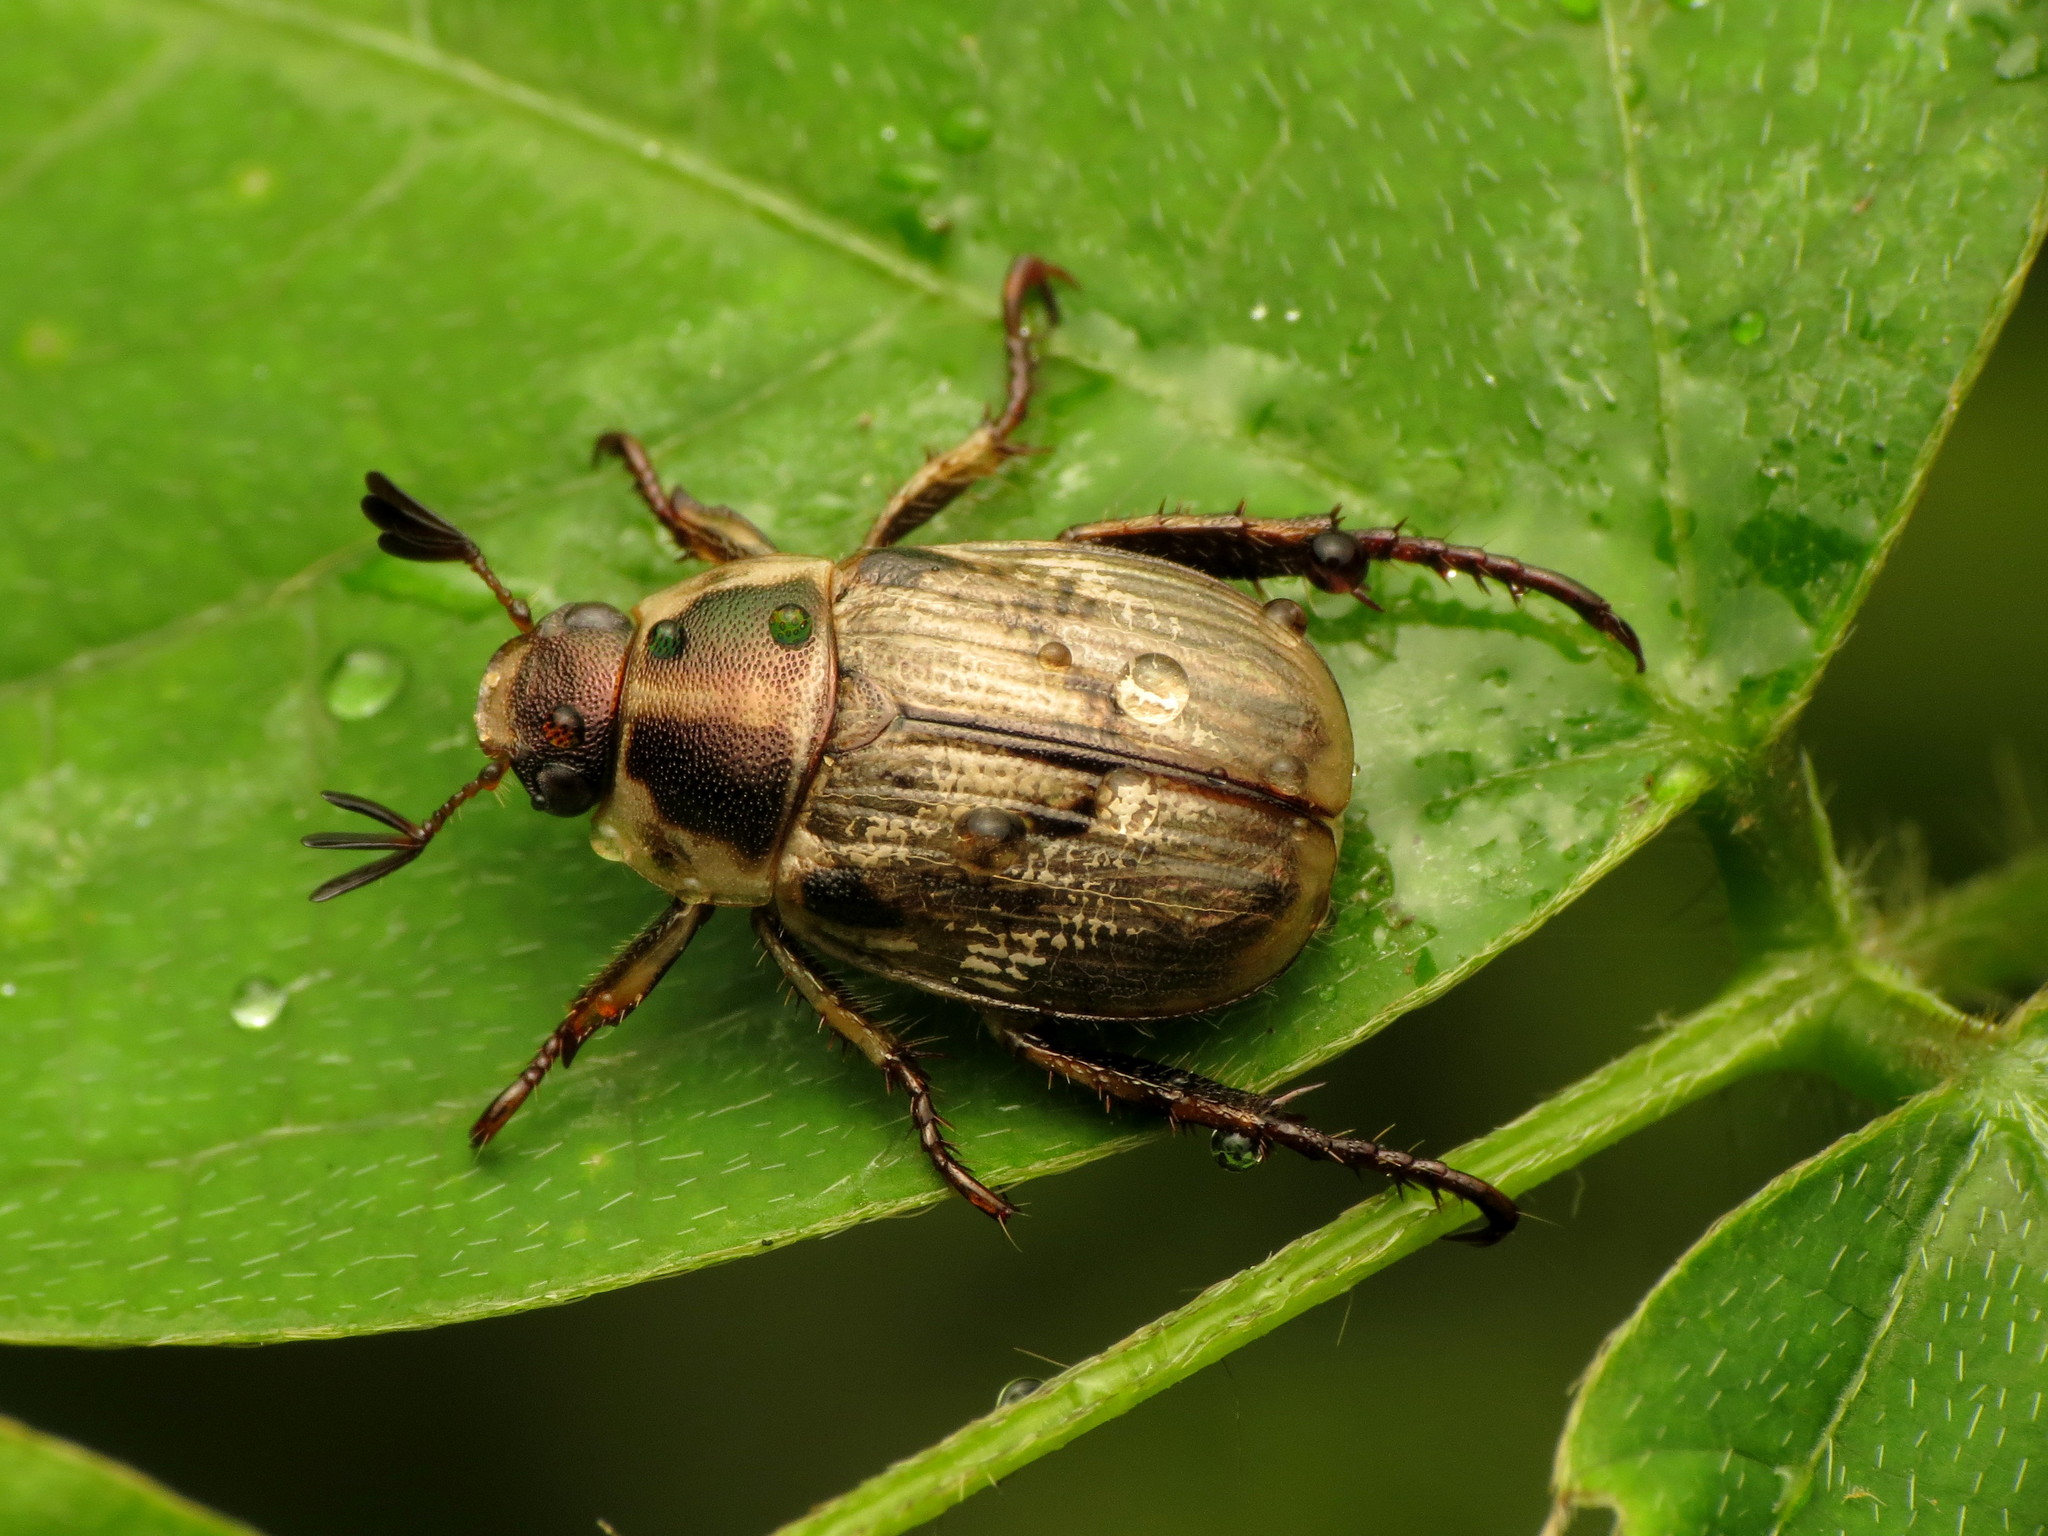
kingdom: Animalia
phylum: Arthropoda
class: Insecta
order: Coleoptera
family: Scarabaeidae
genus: Exomala
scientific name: Exomala orientalis
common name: Oriental beetle
